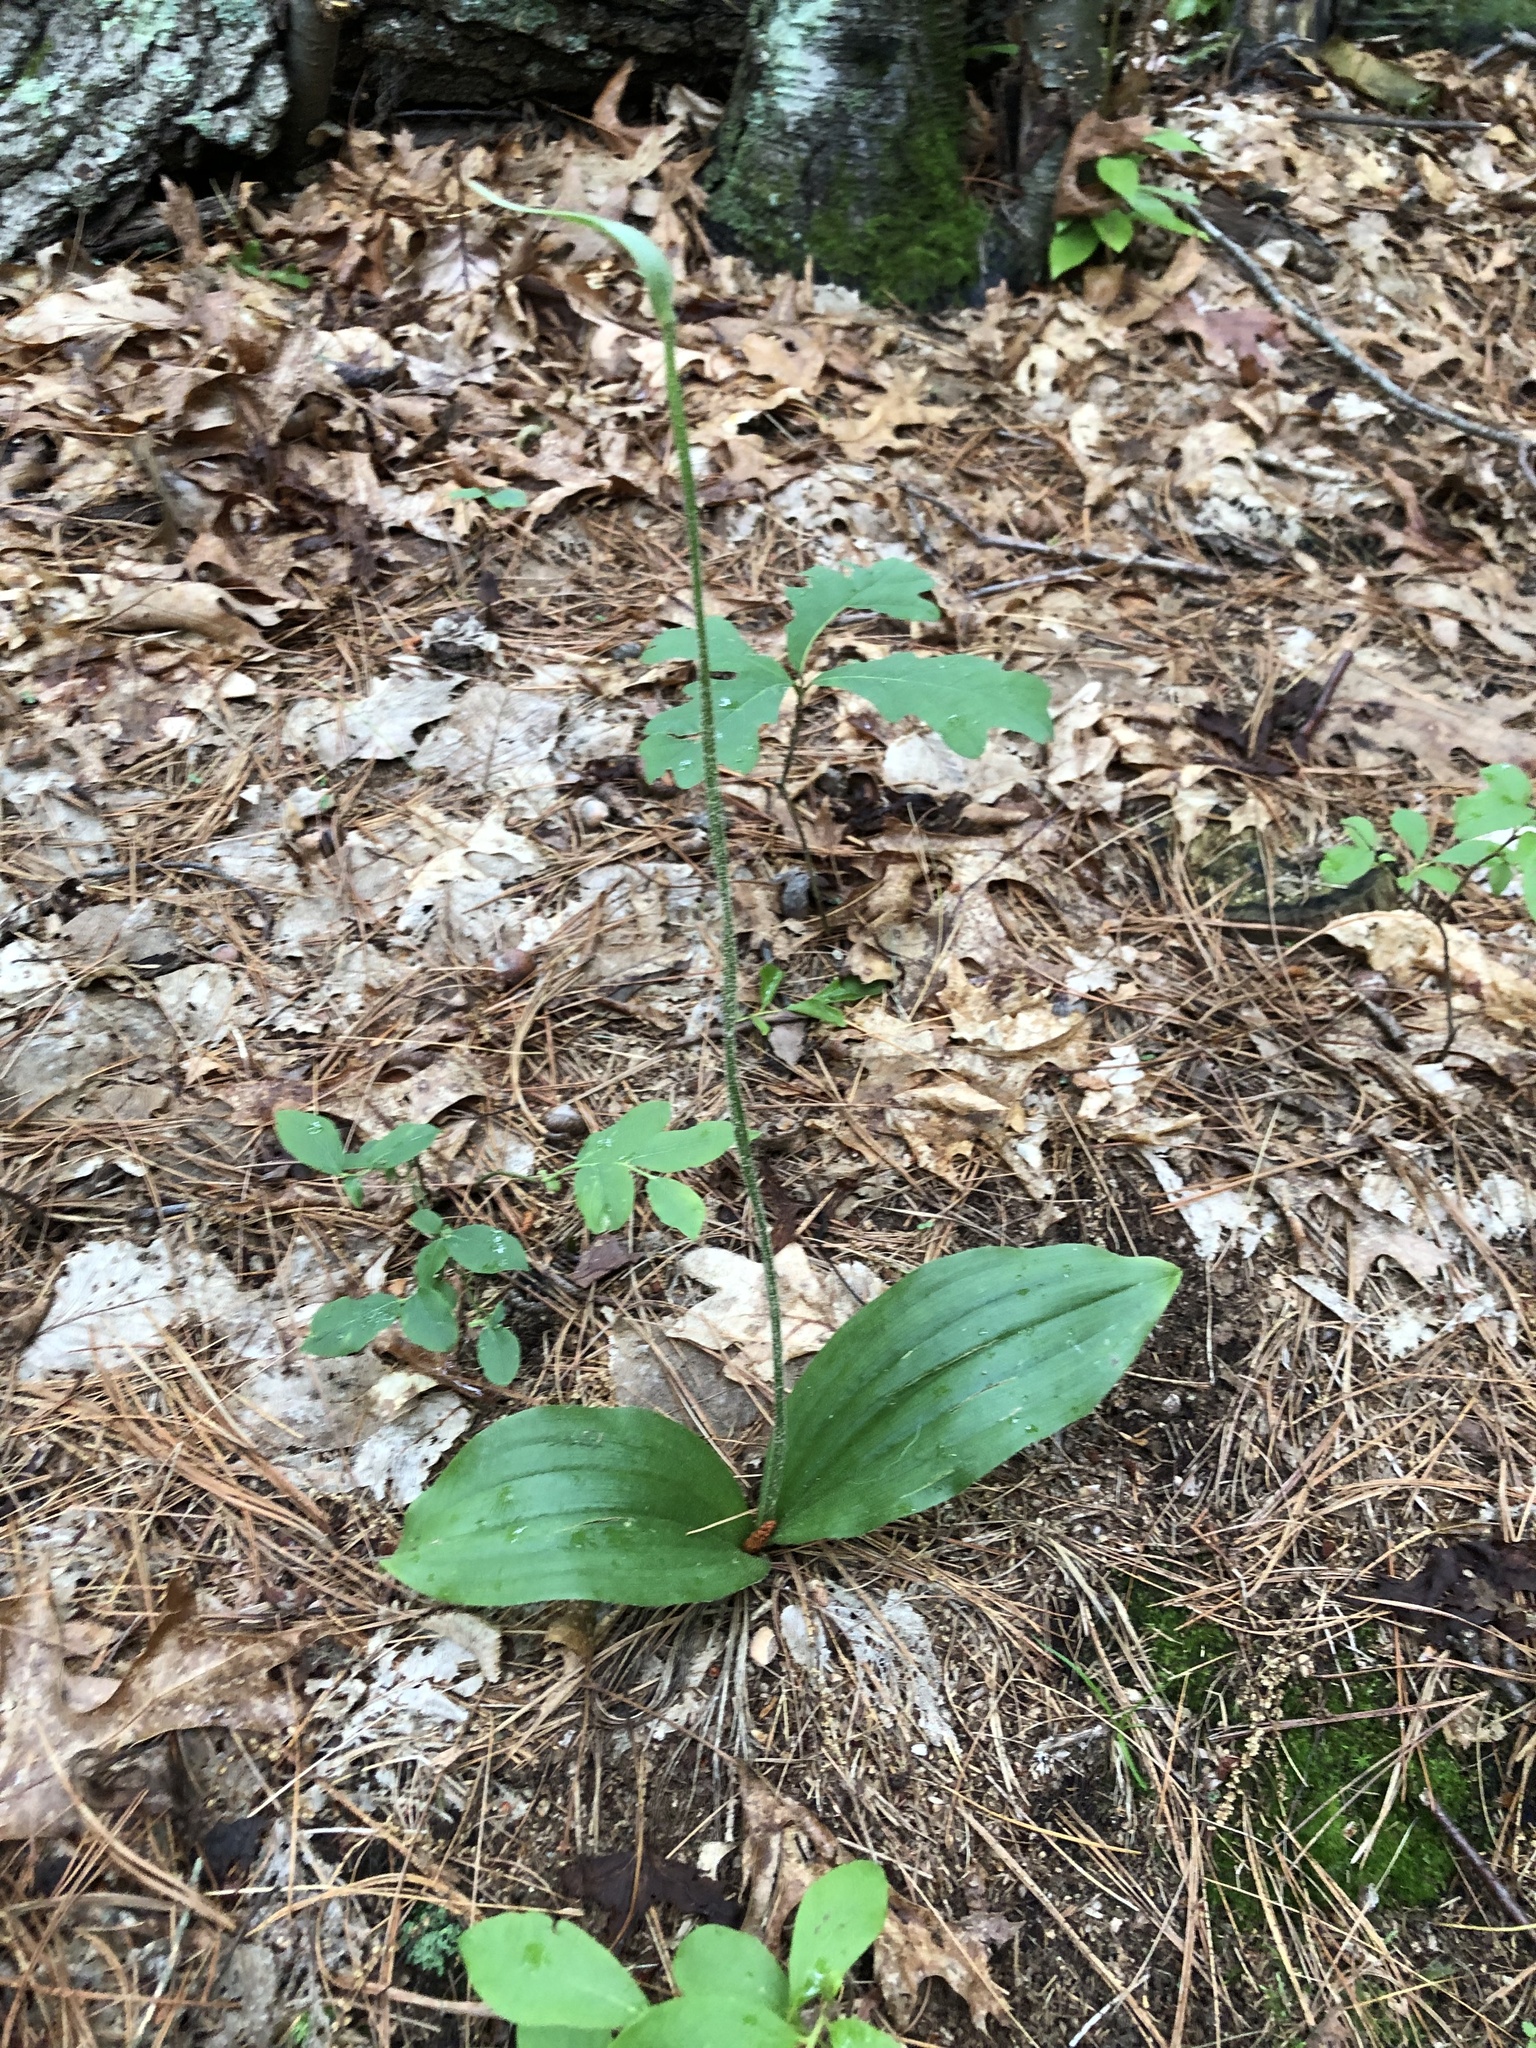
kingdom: Plantae
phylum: Tracheophyta
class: Liliopsida
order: Asparagales
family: Orchidaceae
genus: Cypripedium
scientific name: Cypripedium acaule
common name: Pink lady's-slipper
